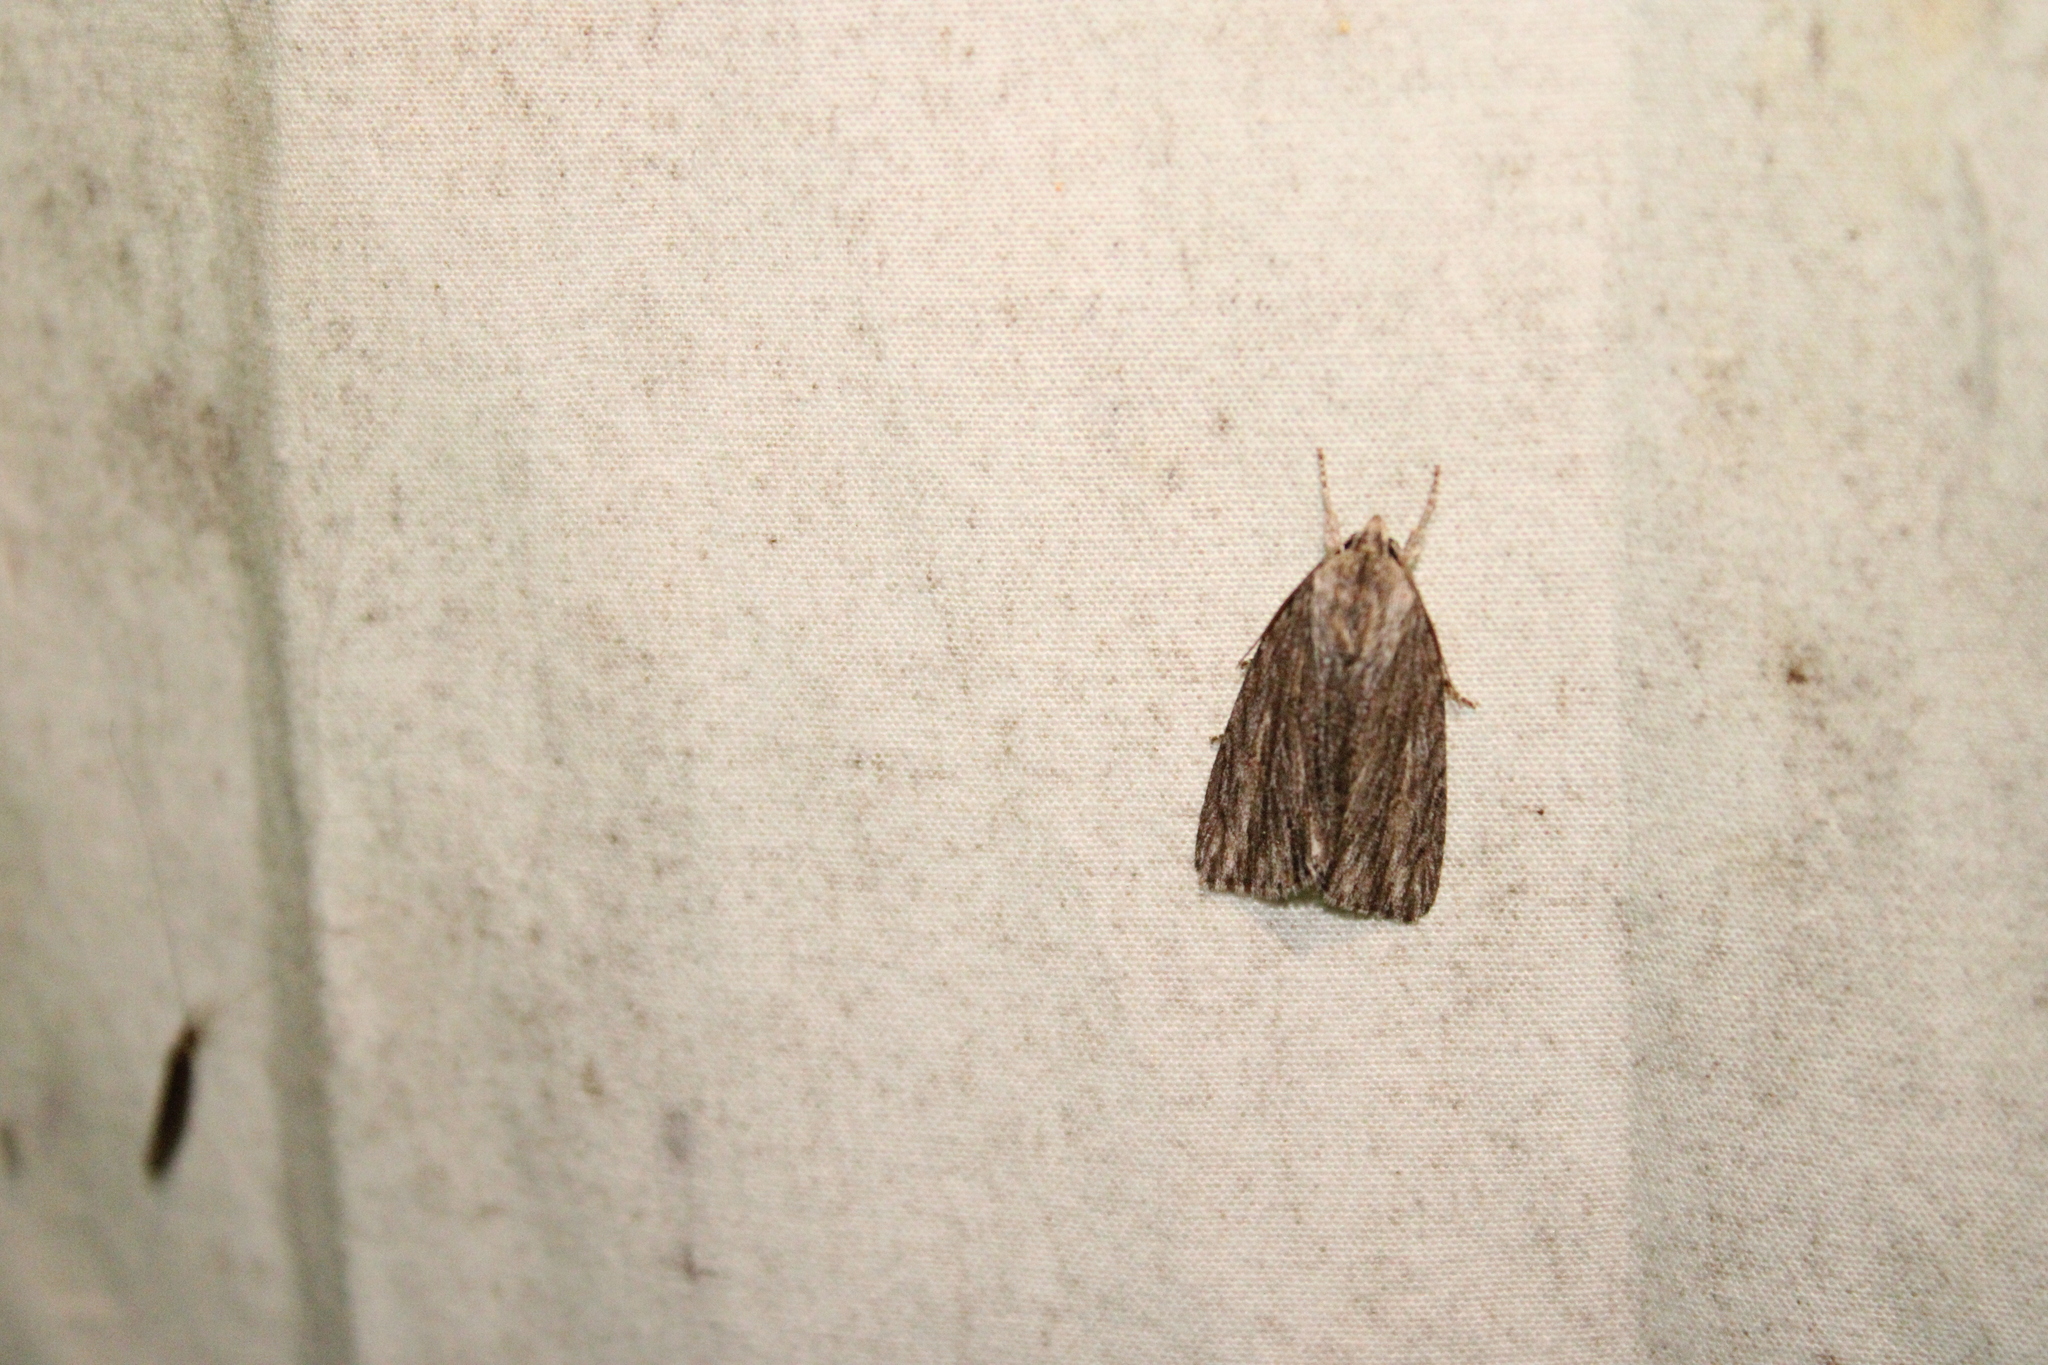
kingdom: Animalia
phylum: Arthropoda
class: Insecta
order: Lepidoptera
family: Noctuidae
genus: Acronicta
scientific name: Acronicta lithospila
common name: Streaked dagger
